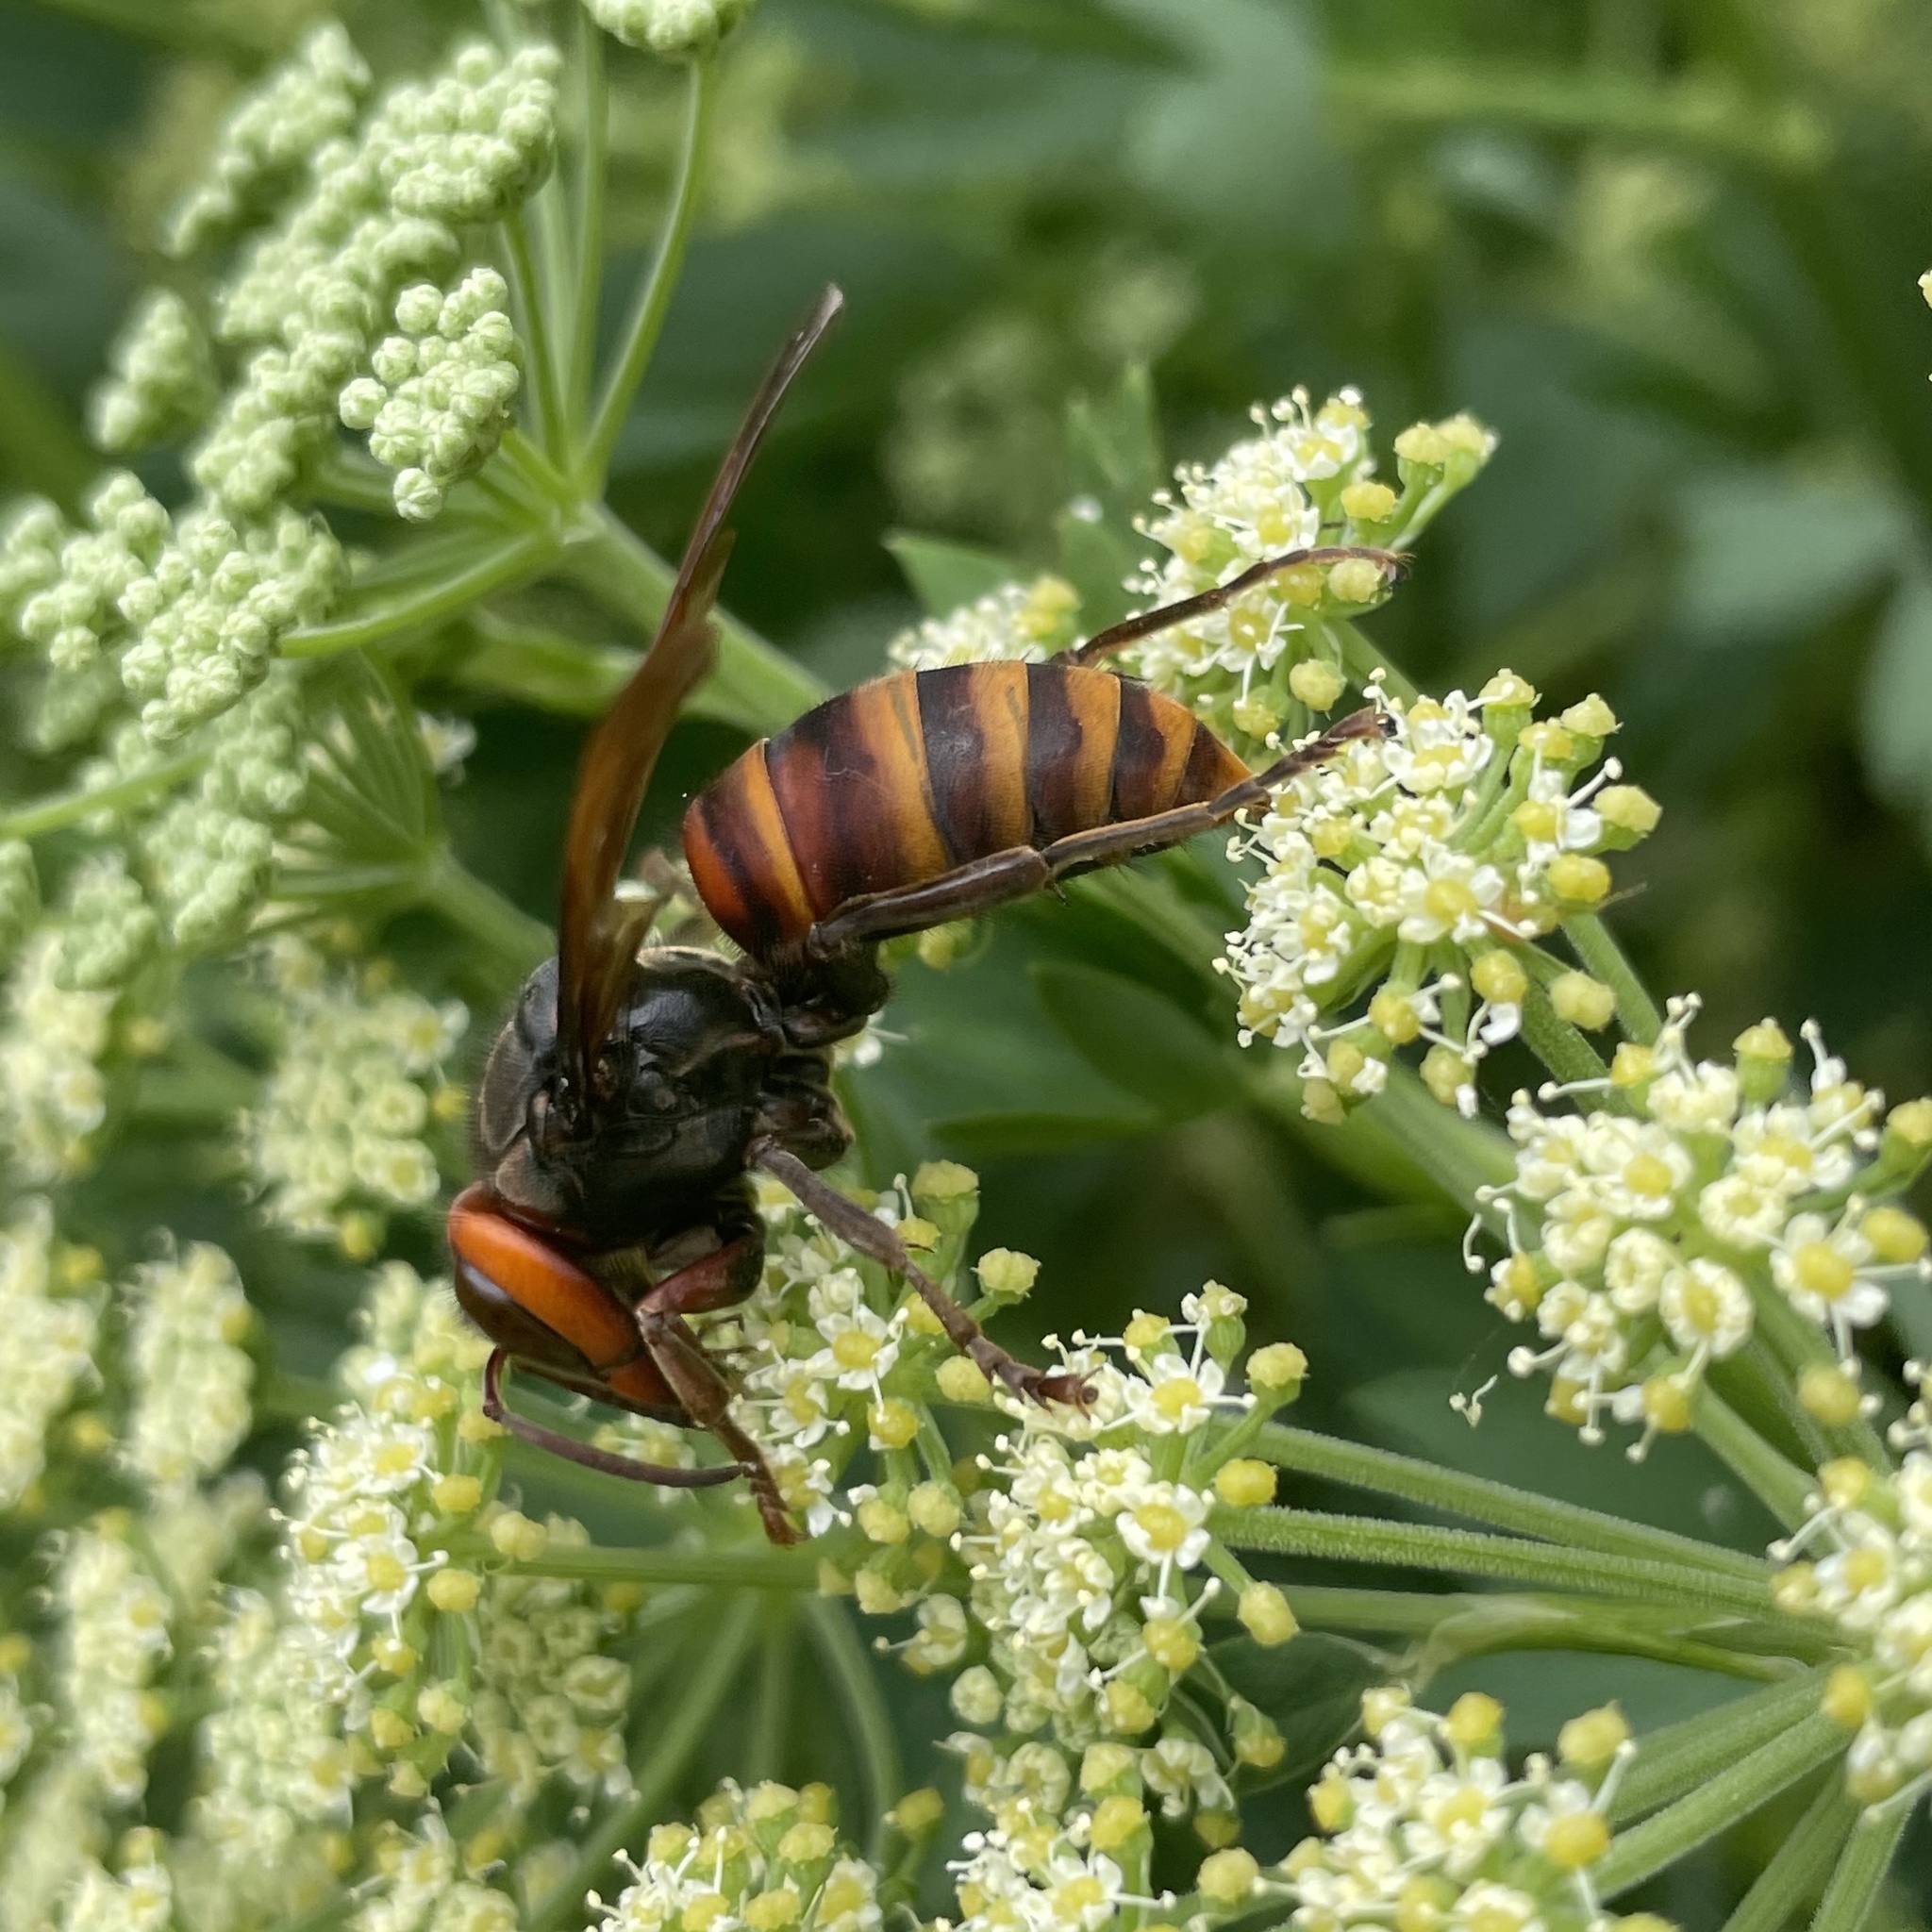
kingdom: Animalia
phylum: Arthropoda
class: Insecta
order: Hymenoptera
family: Vespidae
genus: Vespa
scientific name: Vespa analis
